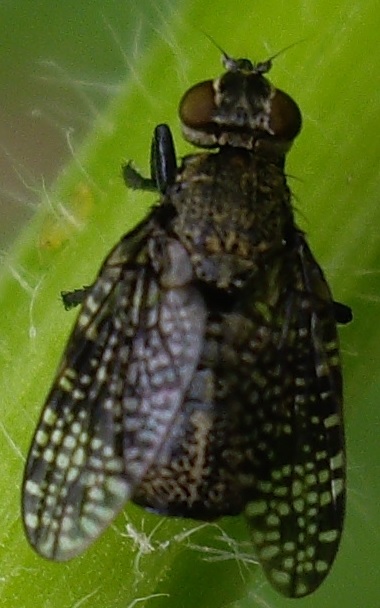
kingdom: Animalia
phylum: Arthropoda
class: Insecta
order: Diptera
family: Platystomatidae
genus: Platystoma
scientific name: Platystoma seminationis
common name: Fly
